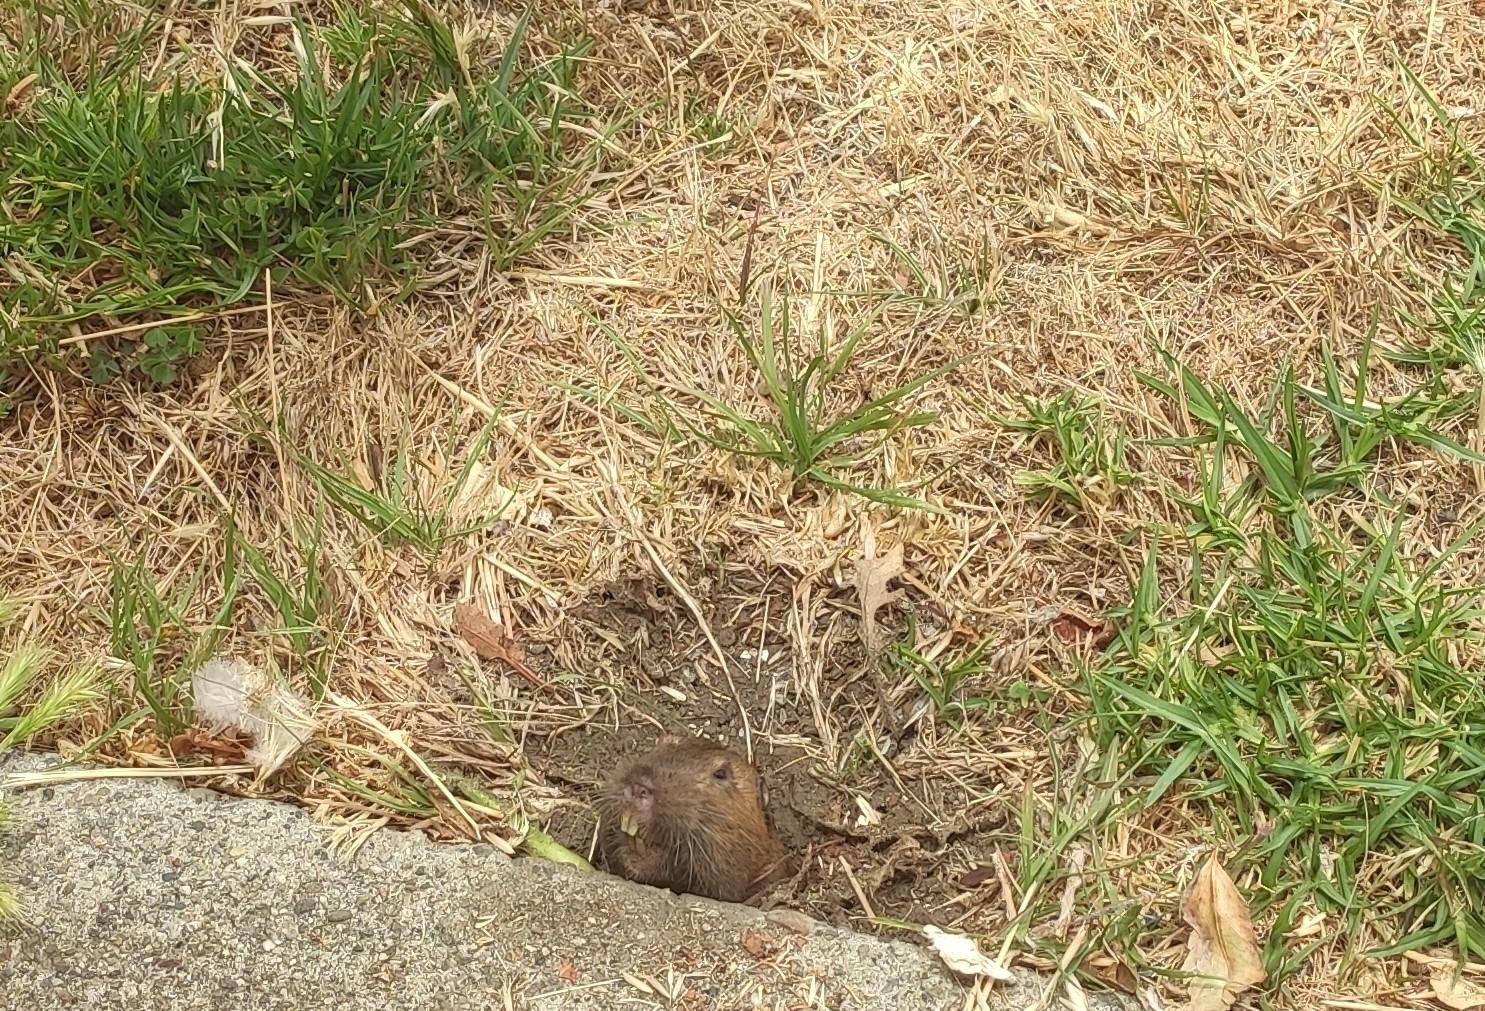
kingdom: Animalia
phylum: Chordata
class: Mammalia
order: Rodentia
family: Geomyidae
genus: Thomomys
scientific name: Thomomys bottae
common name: Botta's pocket gopher
